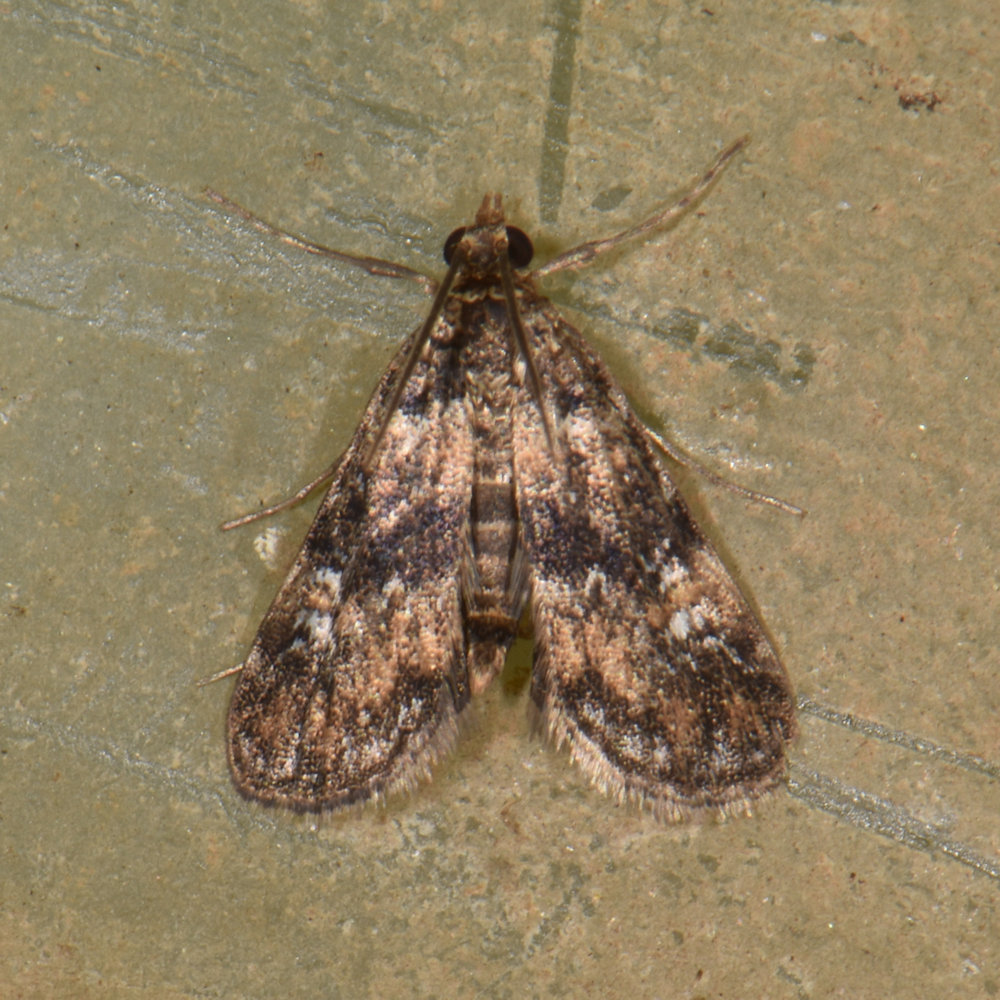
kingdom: Animalia
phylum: Arthropoda
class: Insecta
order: Lepidoptera
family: Crambidae
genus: Elophila
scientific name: Elophila obliteralis
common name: Waterlily leafcutter moth
